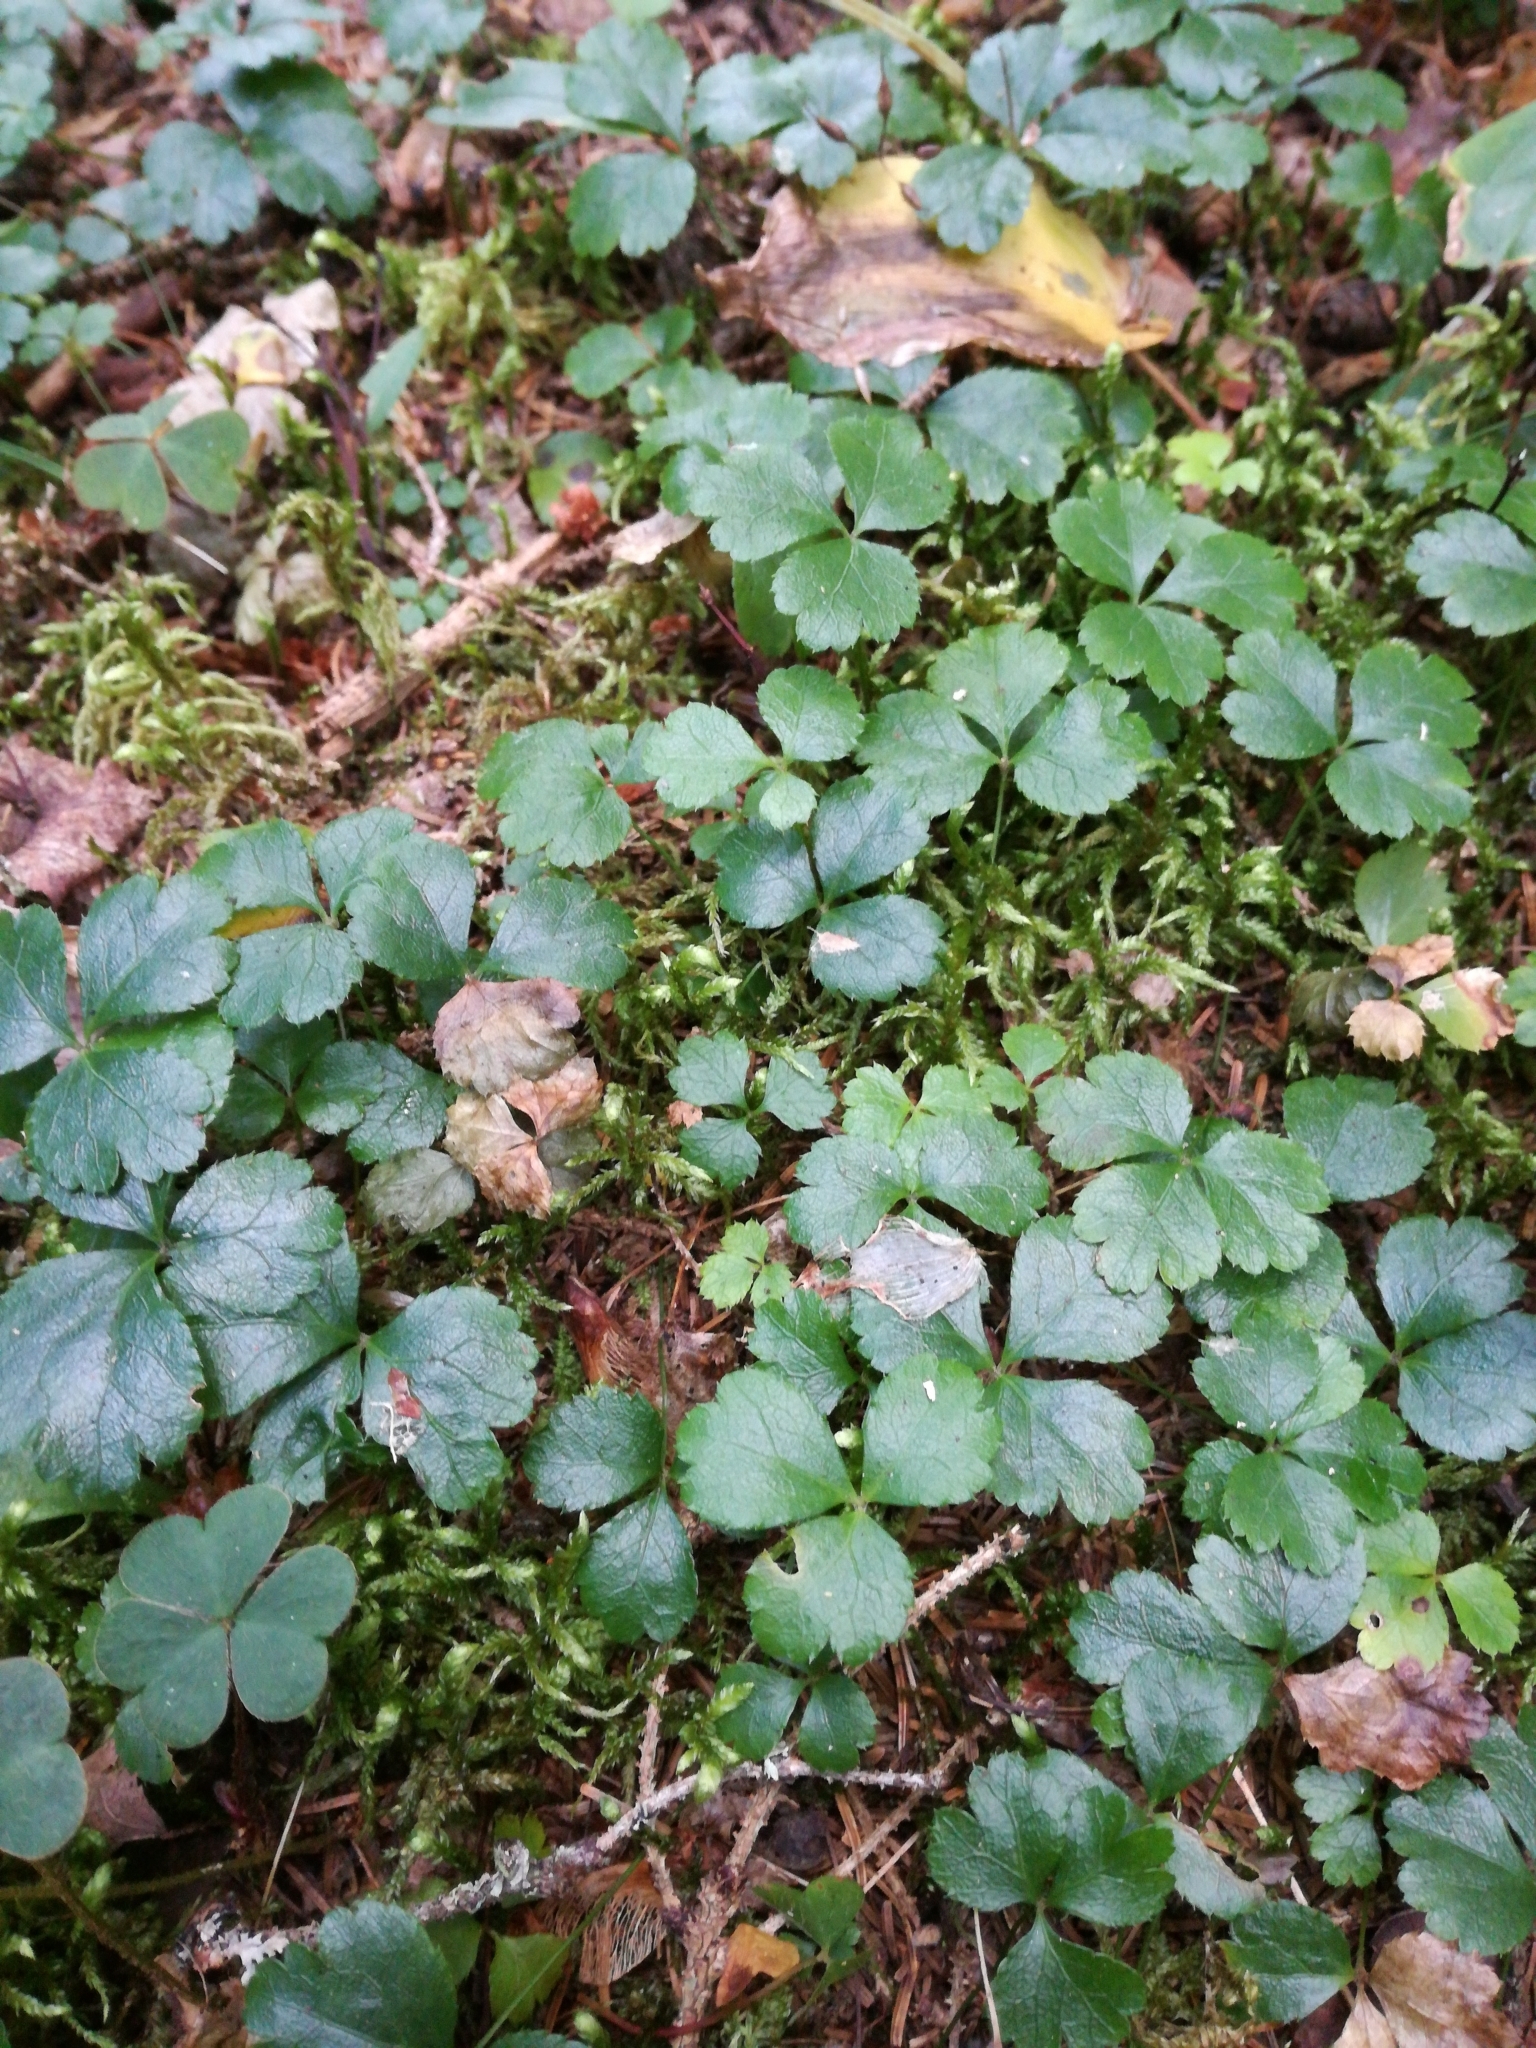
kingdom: Plantae
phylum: Tracheophyta
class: Magnoliopsida
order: Ranunculales
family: Ranunculaceae
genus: Coptis
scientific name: Coptis trifolia
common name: Canker-root
